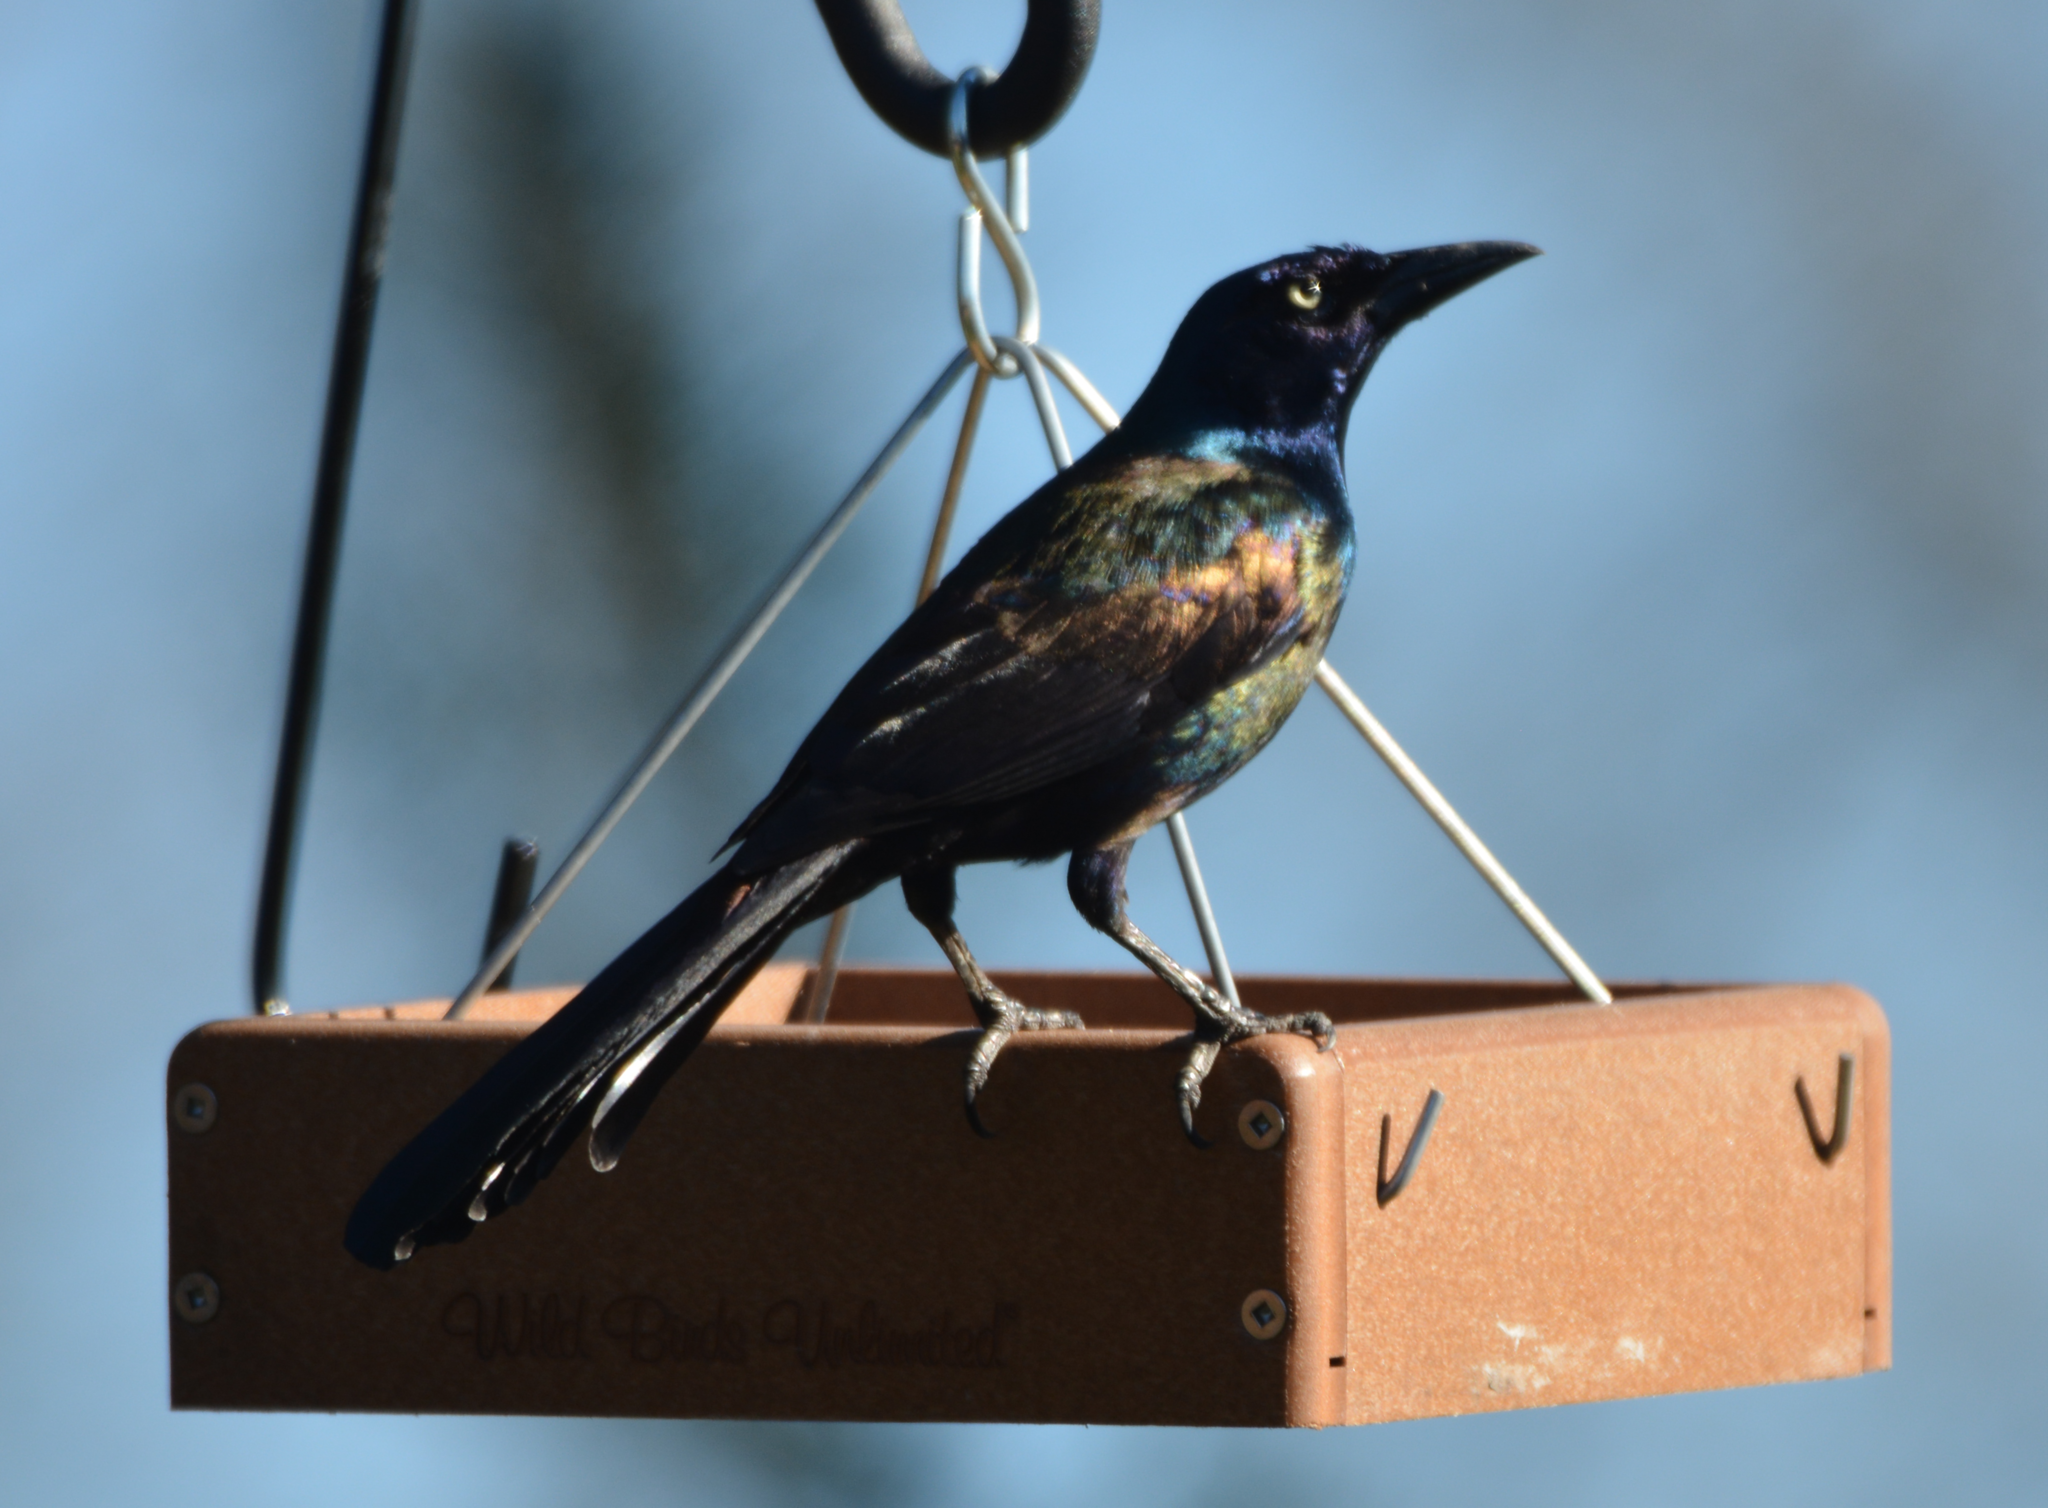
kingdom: Animalia
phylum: Chordata
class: Aves
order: Passeriformes
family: Icteridae
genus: Quiscalus
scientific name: Quiscalus quiscula
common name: Common grackle
